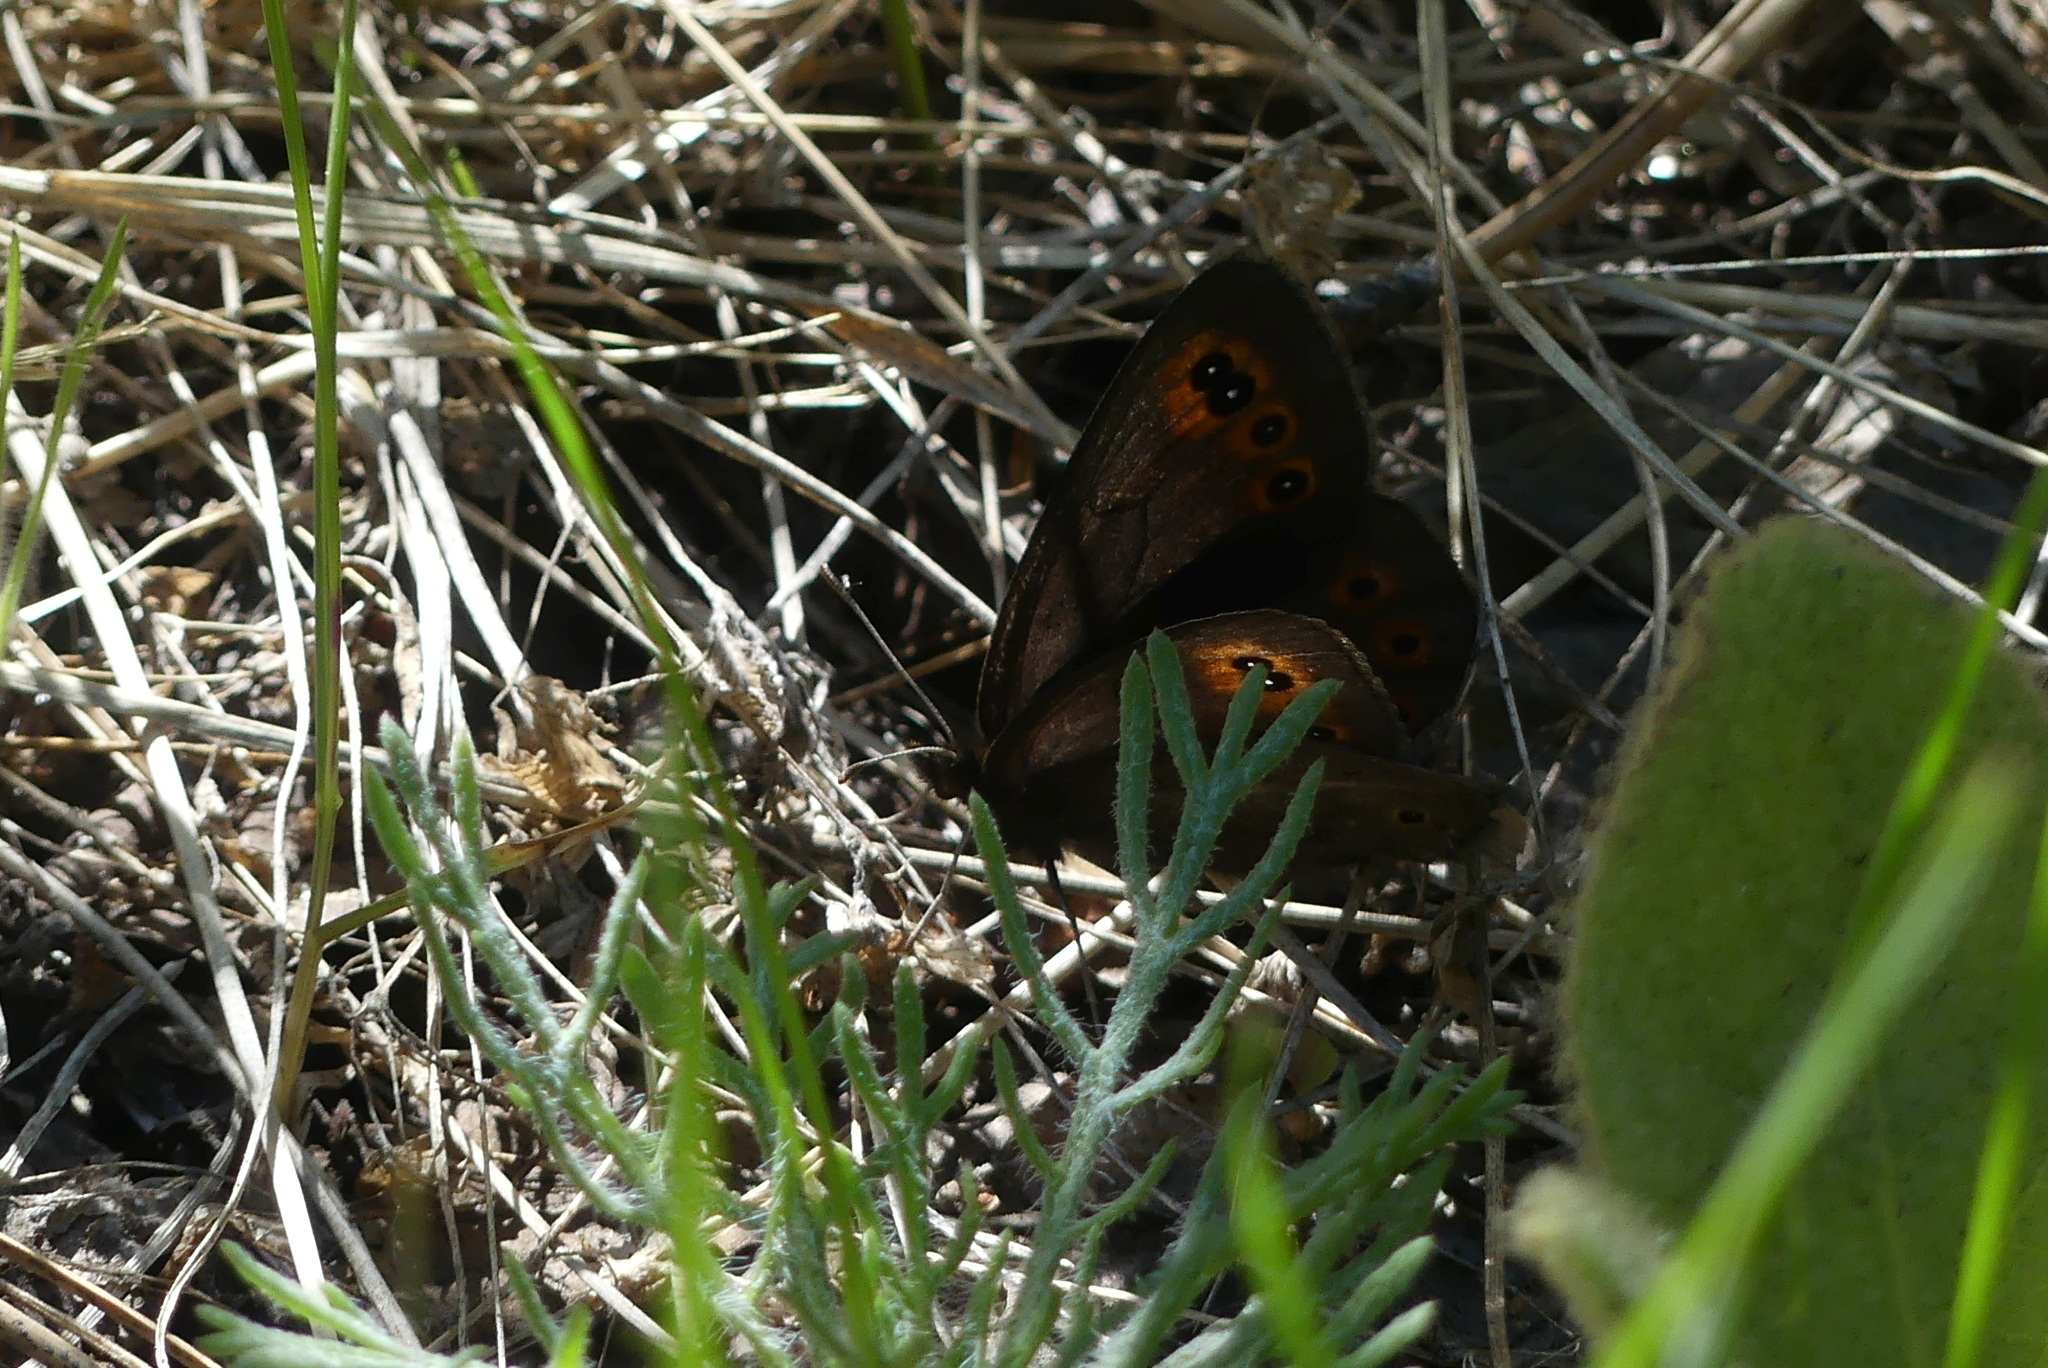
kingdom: Animalia
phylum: Arthropoda
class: Insecta
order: Lepidoptera
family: Nymphalidae
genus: Erebia
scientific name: Erebia epipsodea
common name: Common alpine
